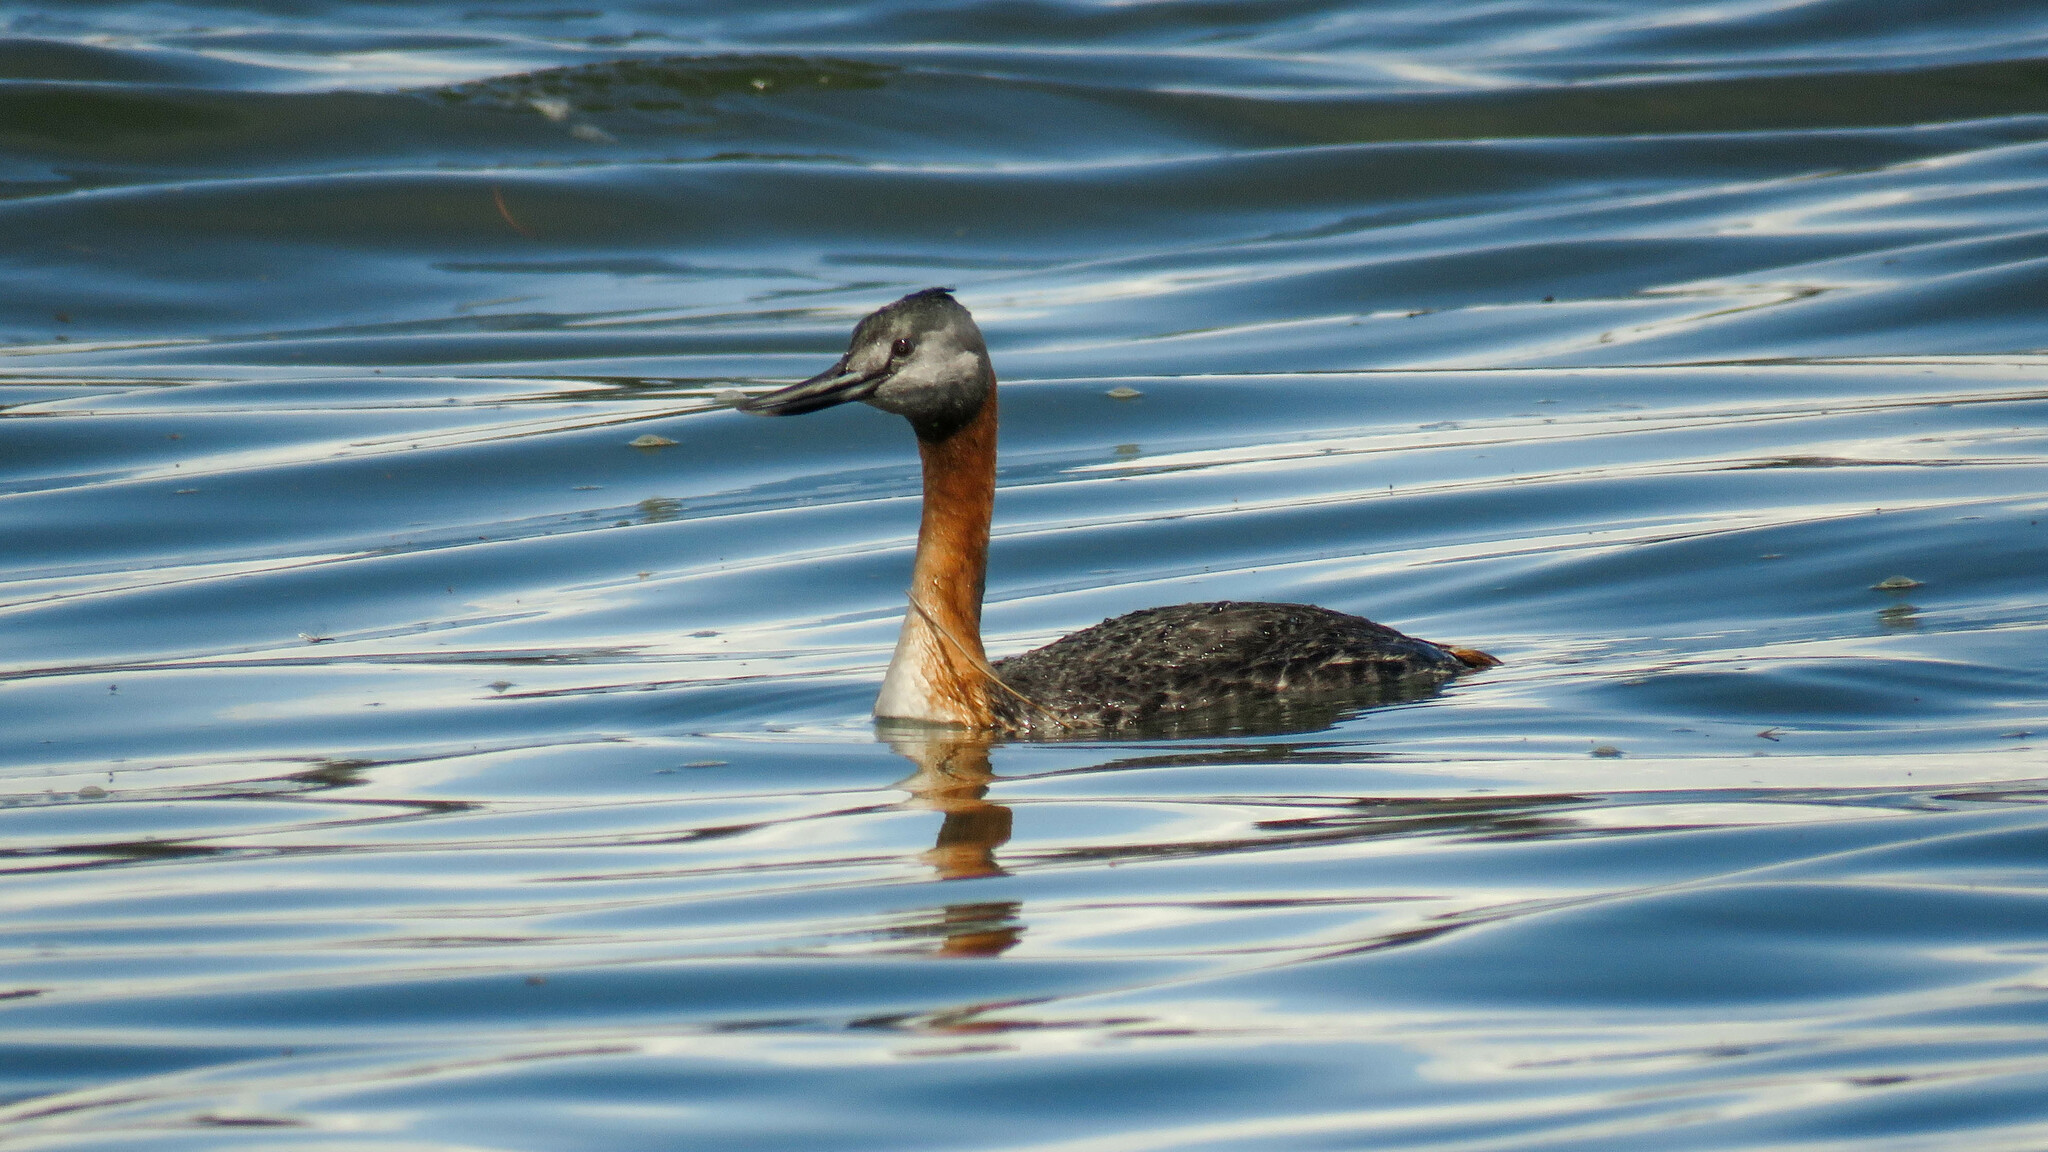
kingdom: Animalia
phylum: Chordata
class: Aves
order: Podicipediformes
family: Podicipedidae
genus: Podiceps
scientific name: Podiceps major
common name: Great grebe
